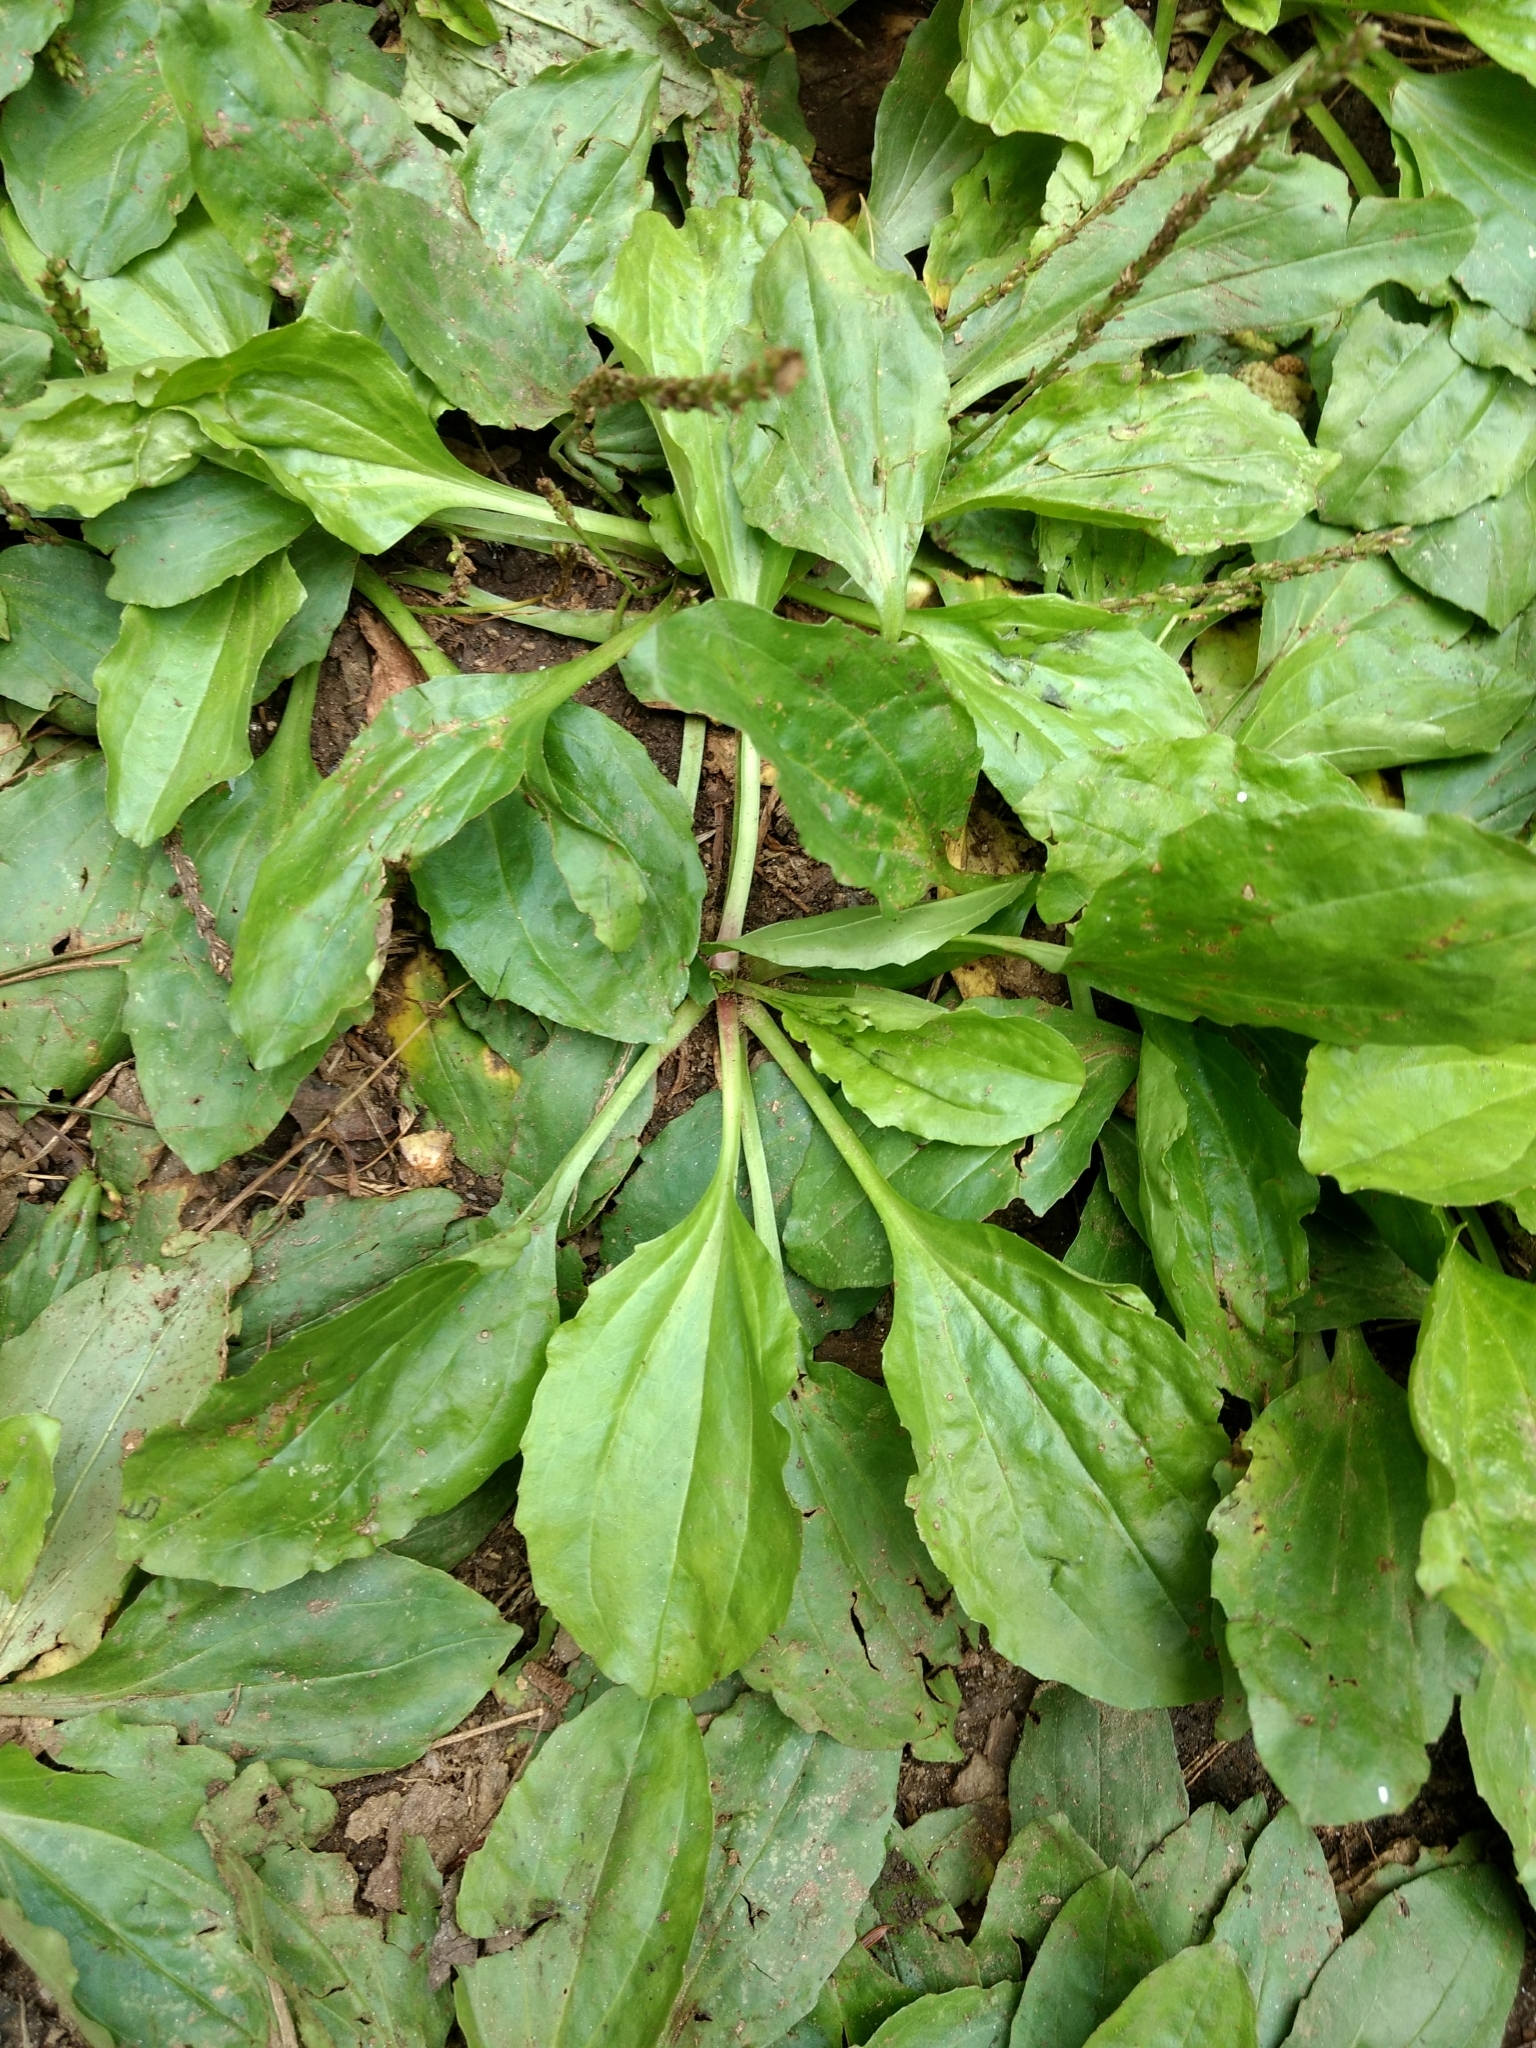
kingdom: Plantae
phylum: Tracheophyta
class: Magnoliopsida
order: Lamiales
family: Plantaginaceae
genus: Plantago
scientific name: Plantago rugelii
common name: American plantain
